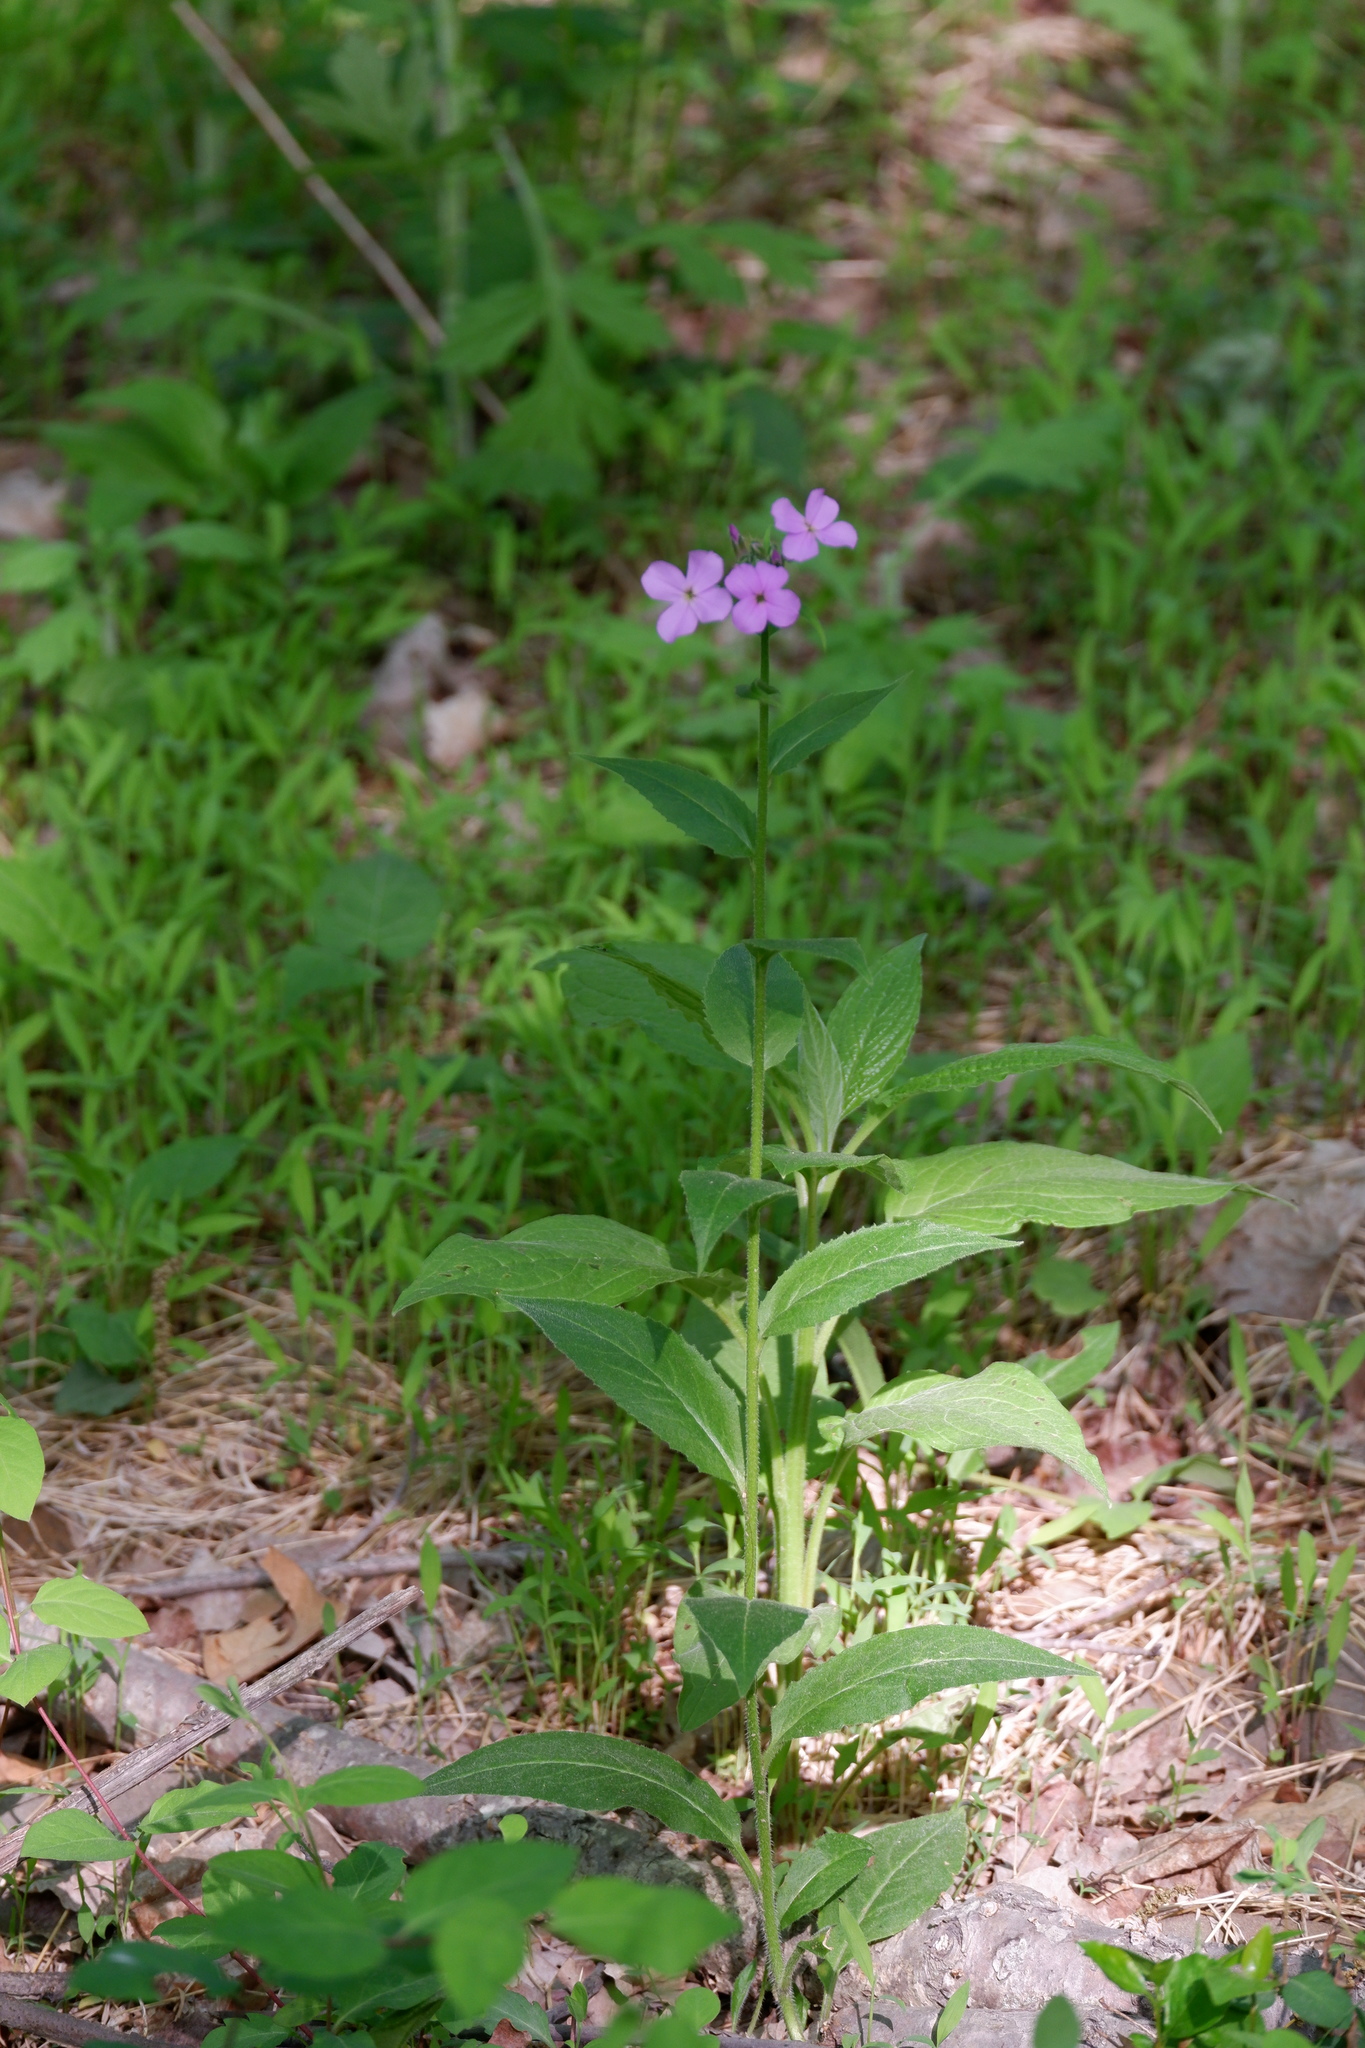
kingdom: Plantae
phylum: Tracheophyta
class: Magnoliopsida
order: Brassicales
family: Brassicaceae
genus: Hesperis
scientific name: Hesperis matronalis
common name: Dame's-violet
